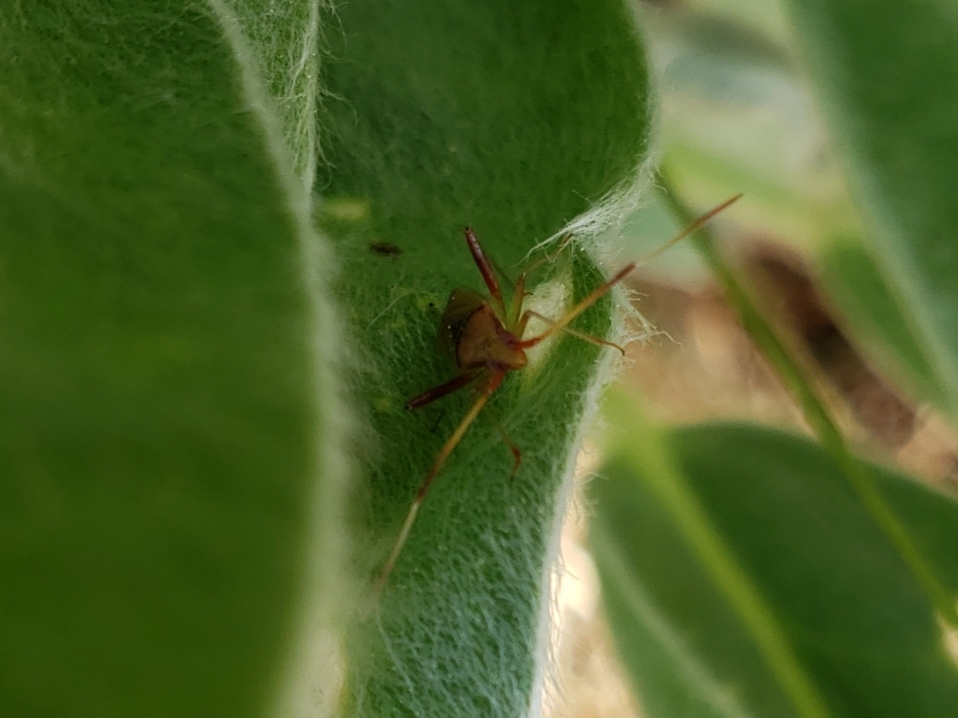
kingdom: Animalia
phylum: Arthropoda
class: Insecta
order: Hemiptera
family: Miridae
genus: Creontiades
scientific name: Creontiades rubrinervis
